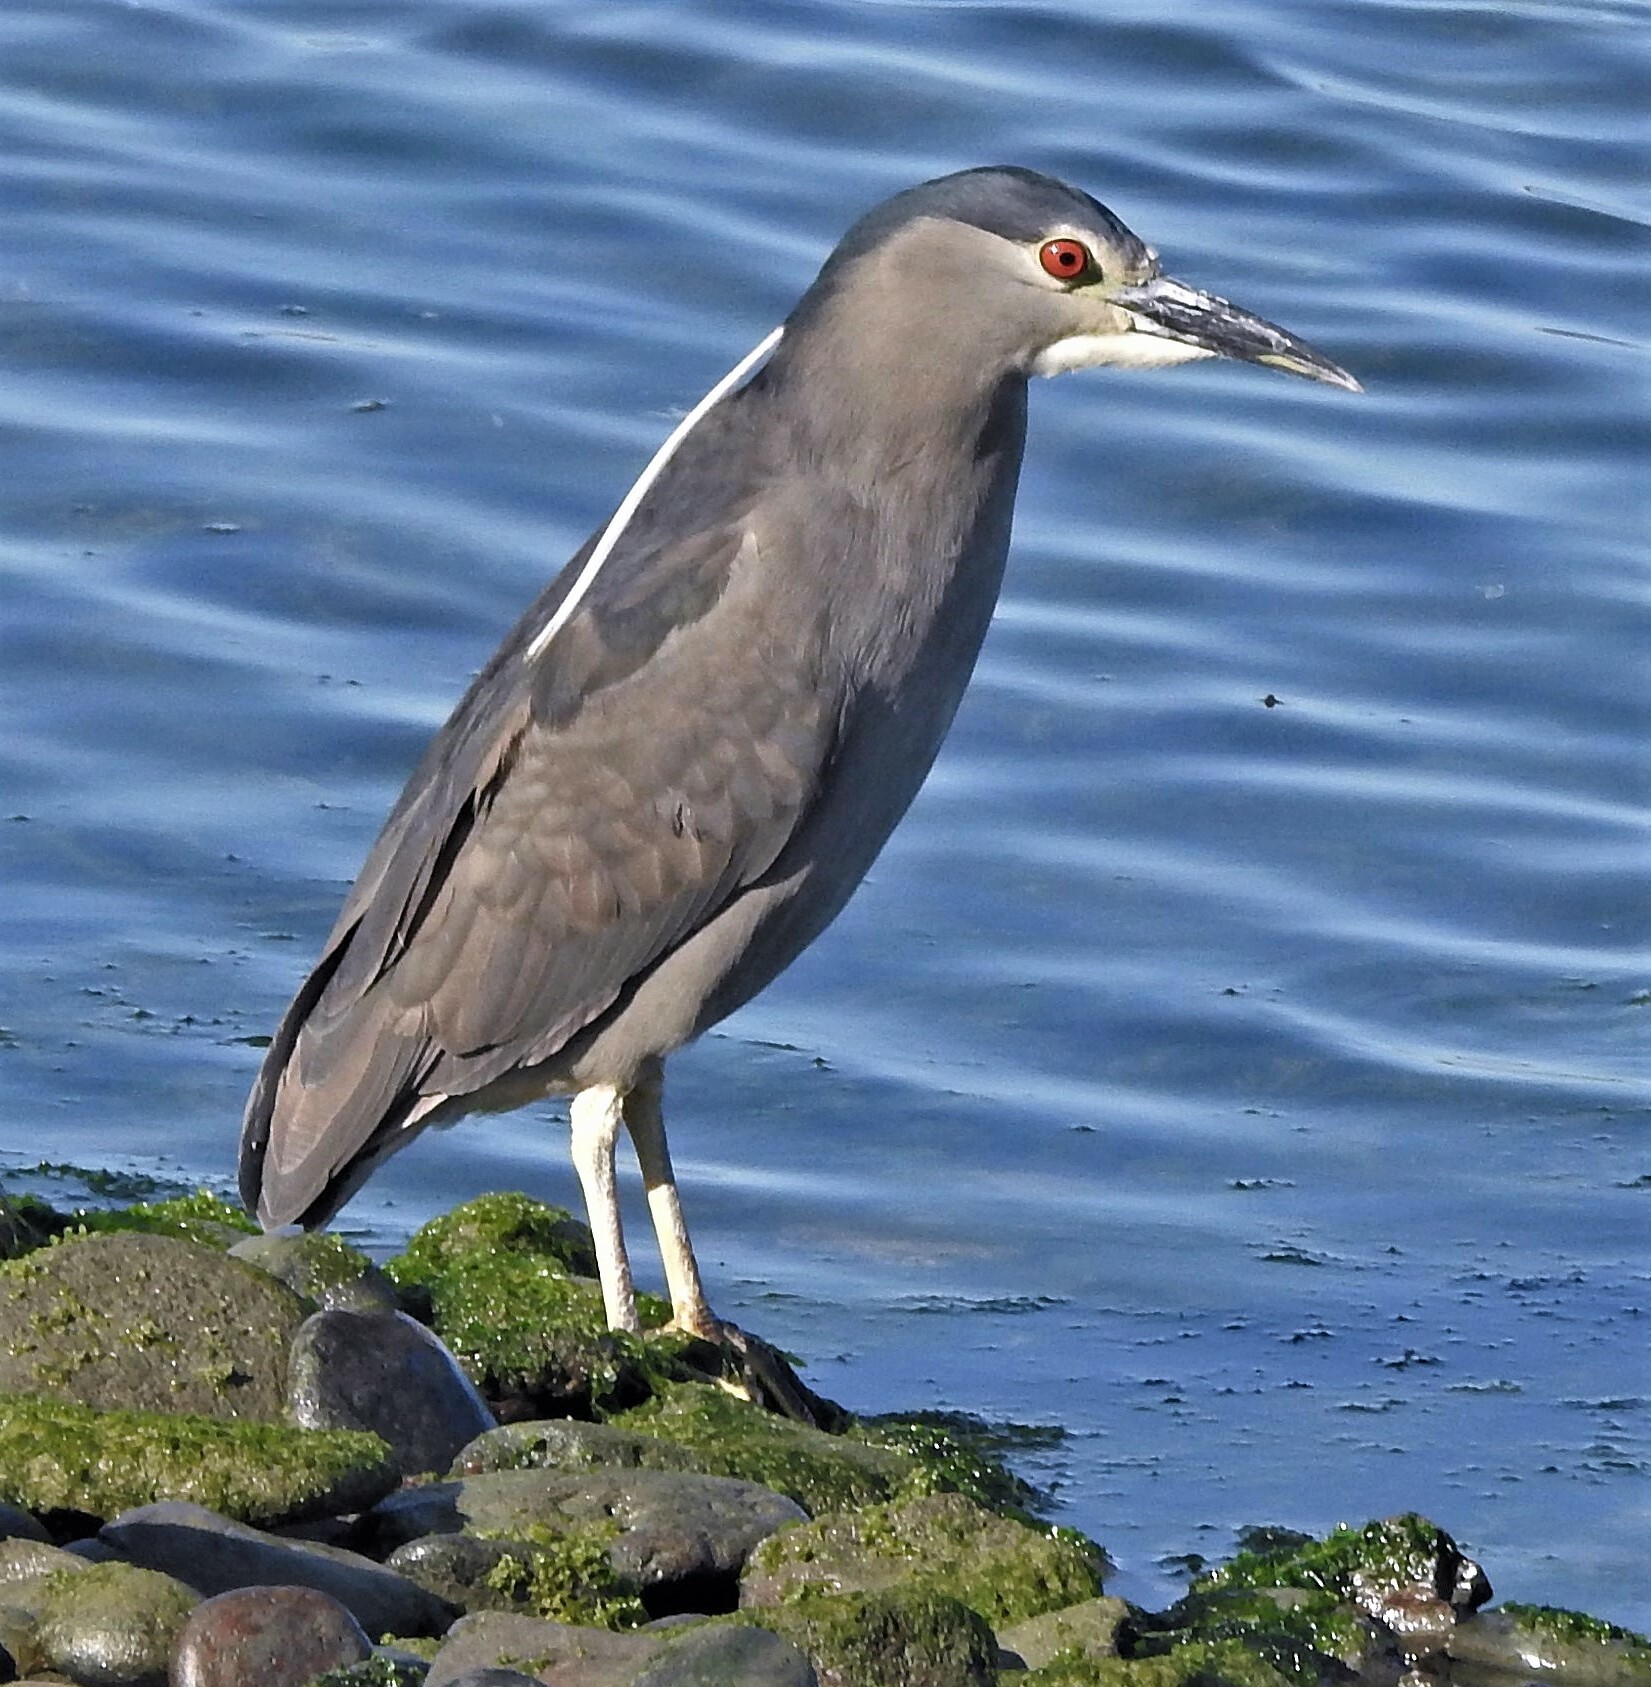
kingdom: Animalia
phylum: Chordata
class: Aves
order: Pelecaniformes
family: Ardeidae
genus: Nycticorax
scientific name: Nycticorax nycticorax
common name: Black-crowned night heron
